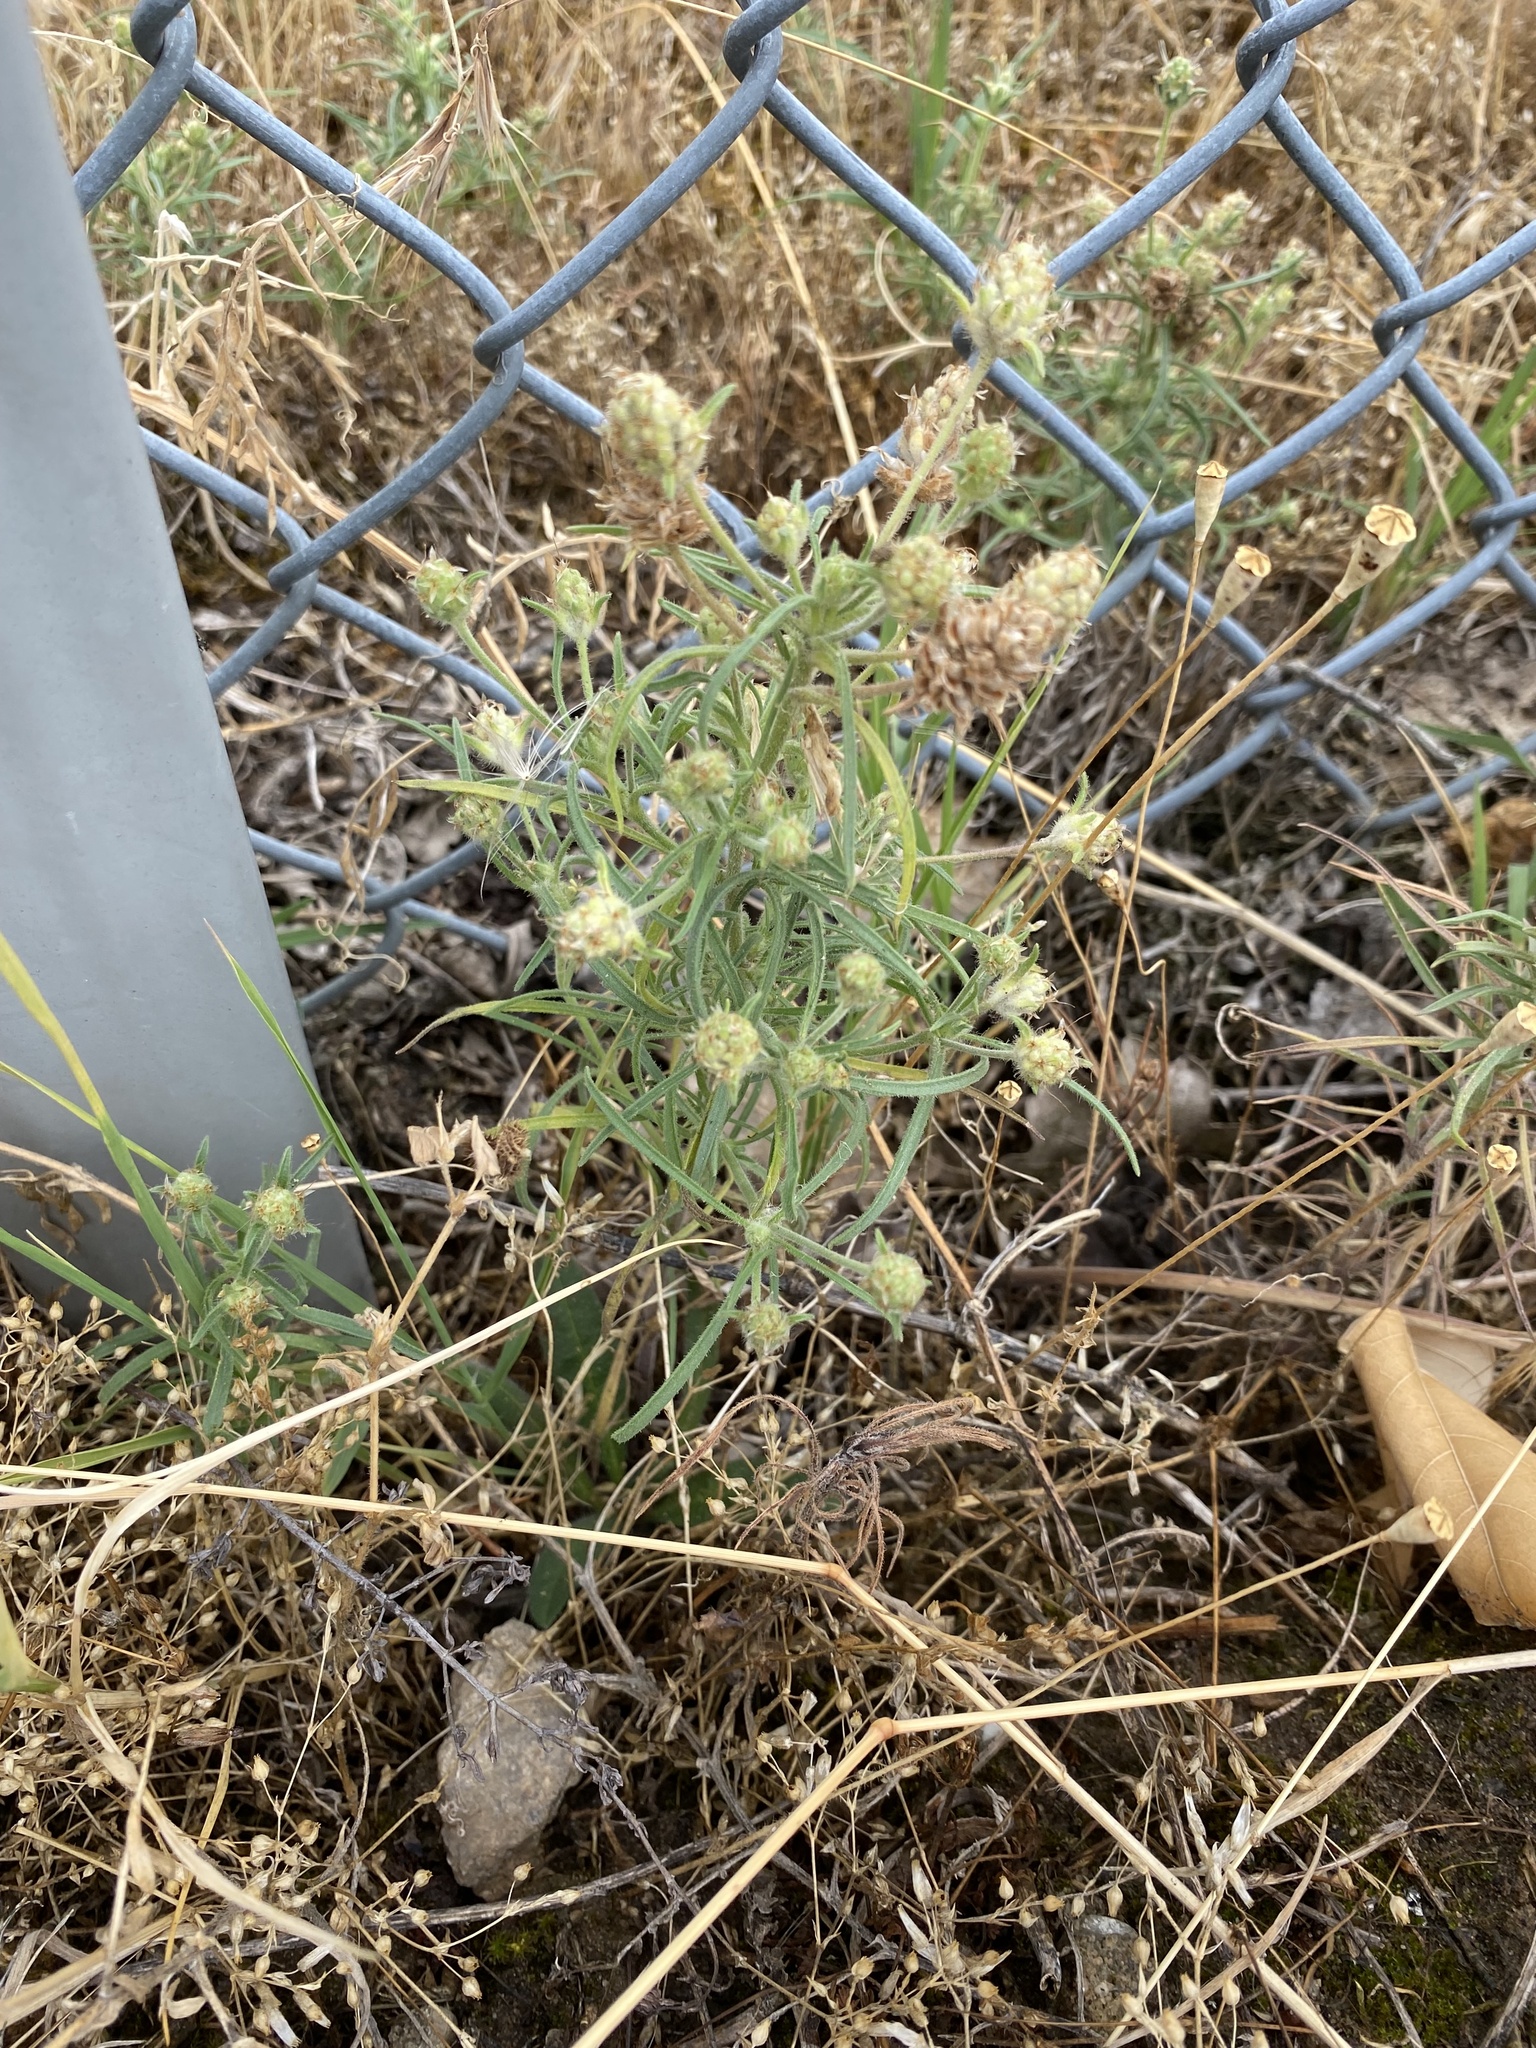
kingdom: Plantae
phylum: Tracheophyta
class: Magnoliopsida
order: Lamiales
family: Plantaginaceae
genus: Plantago
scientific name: Plantago arenaria
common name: Branched plantain
